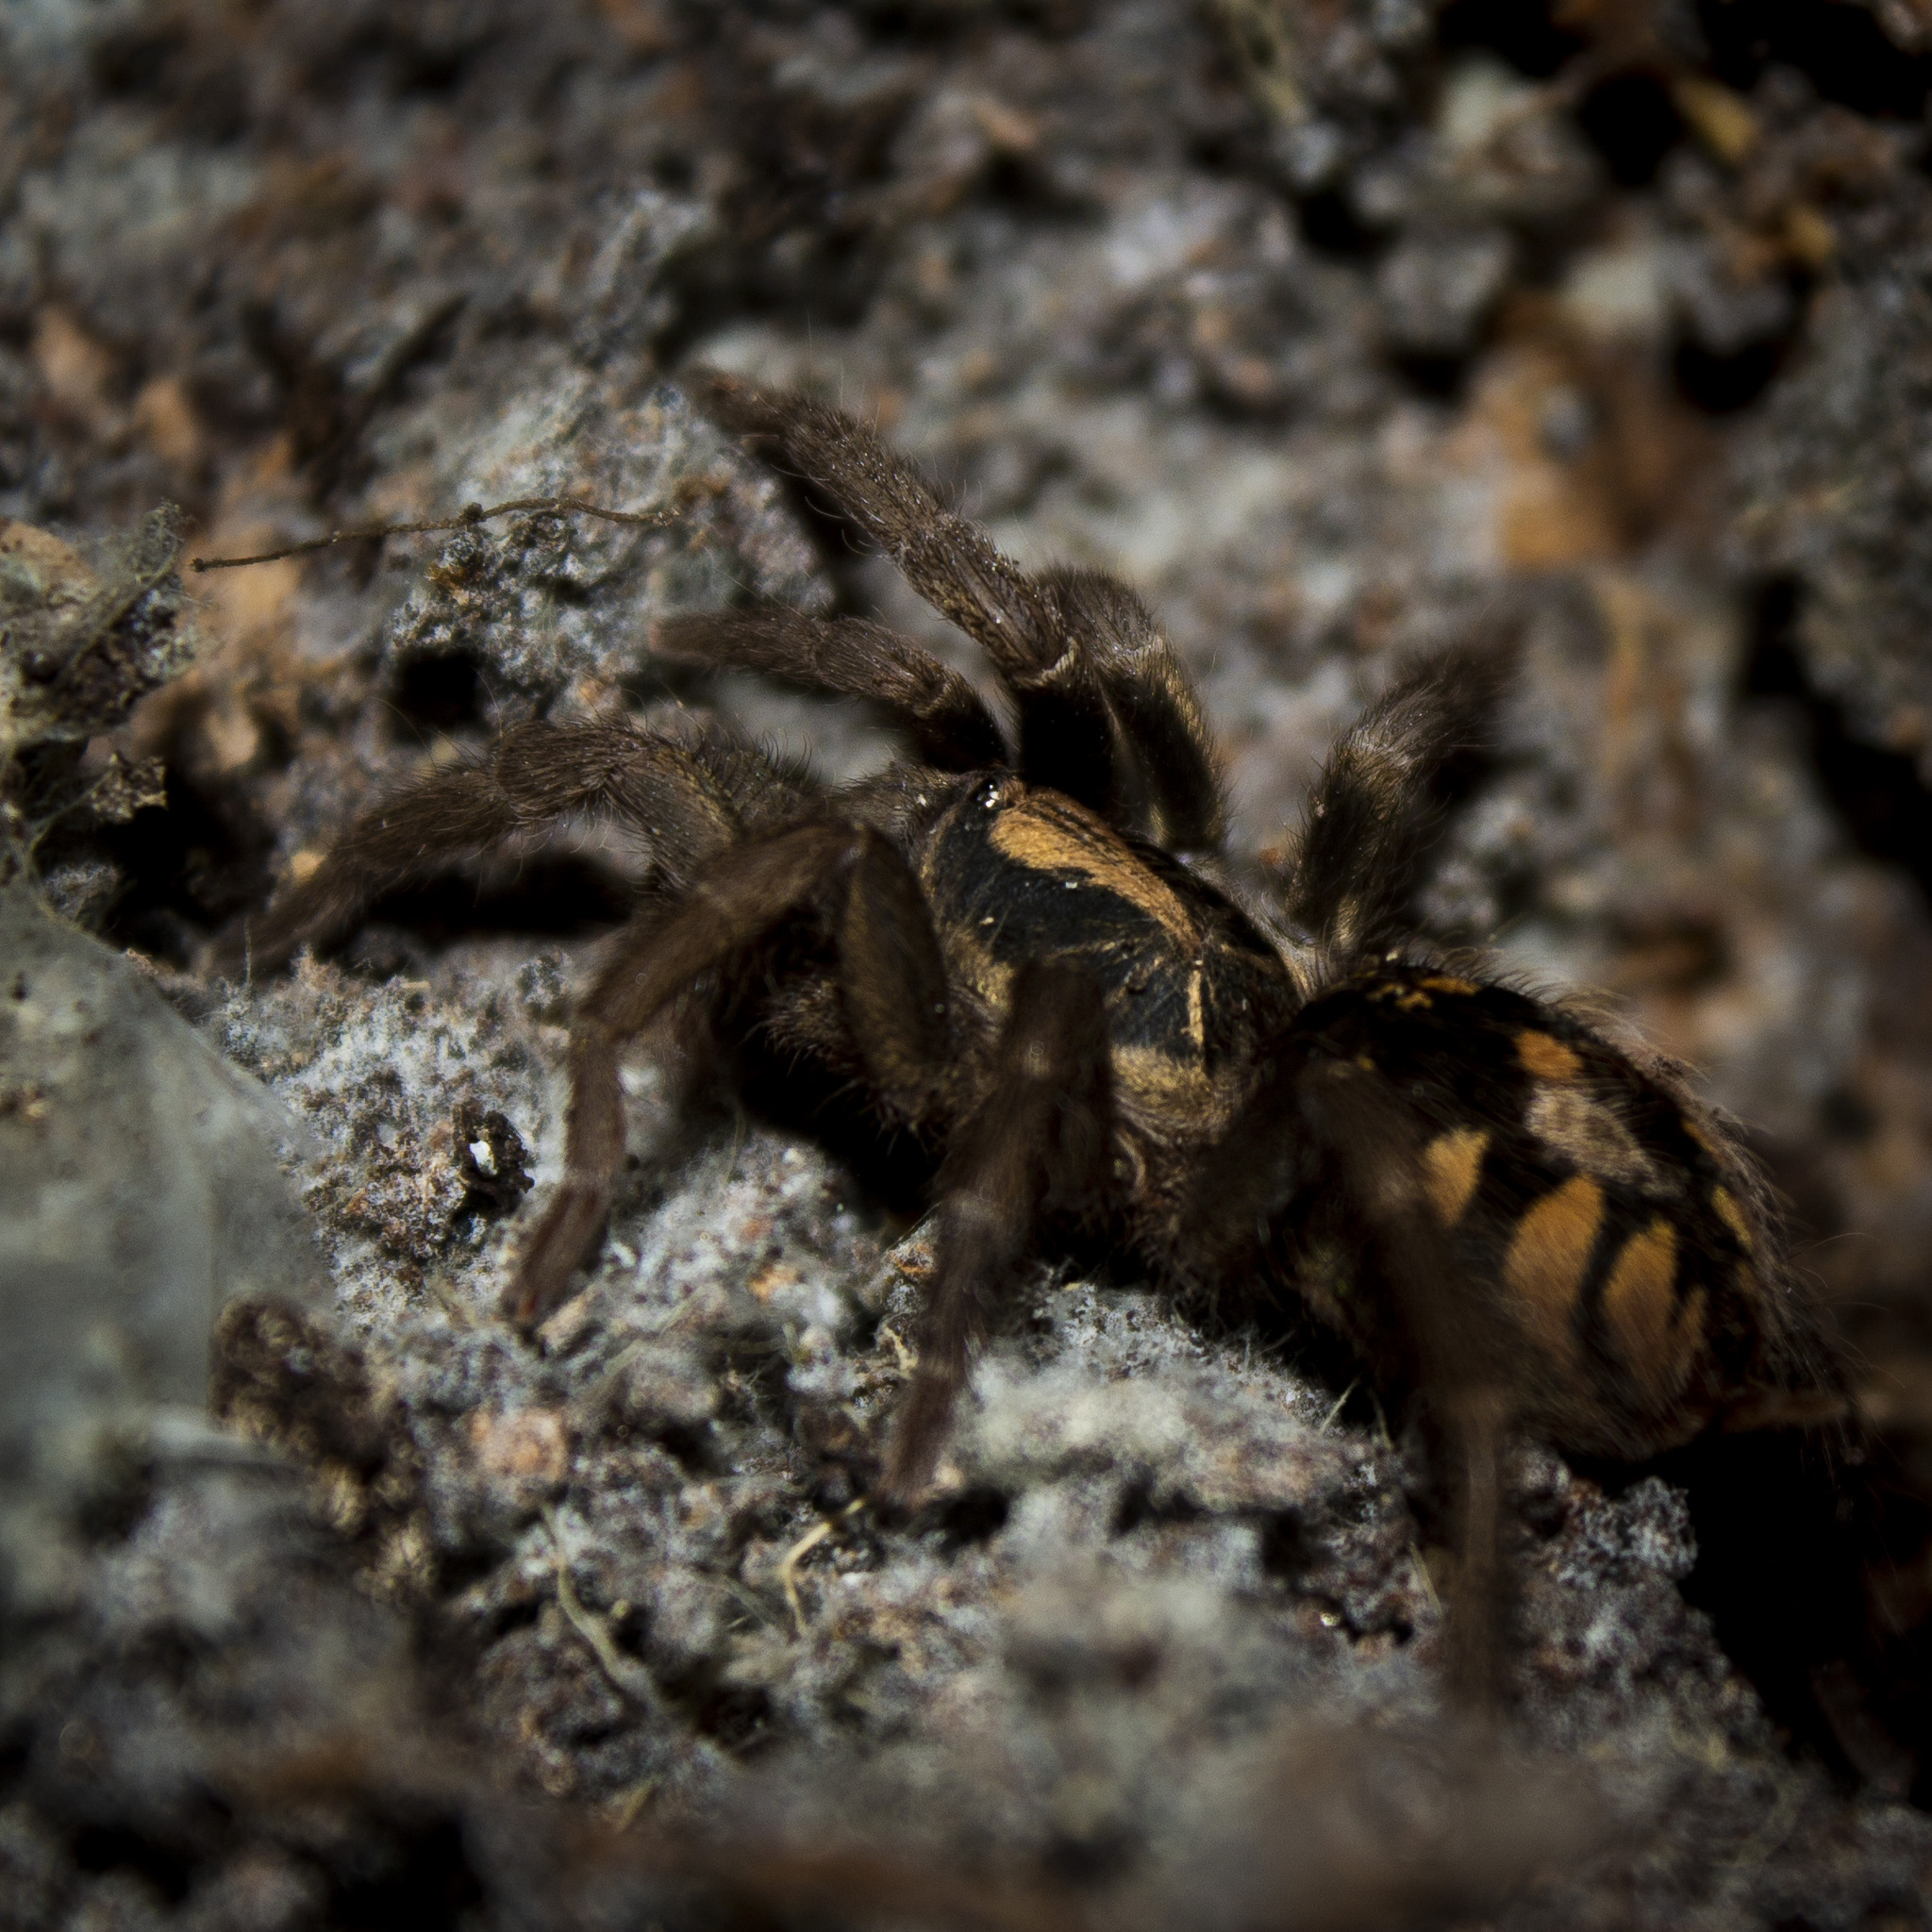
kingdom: Animalia
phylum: Arthropoda
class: Arachnida
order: Araneae
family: Theraphosidae
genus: Hapalopus
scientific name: Hapalopus formosus
